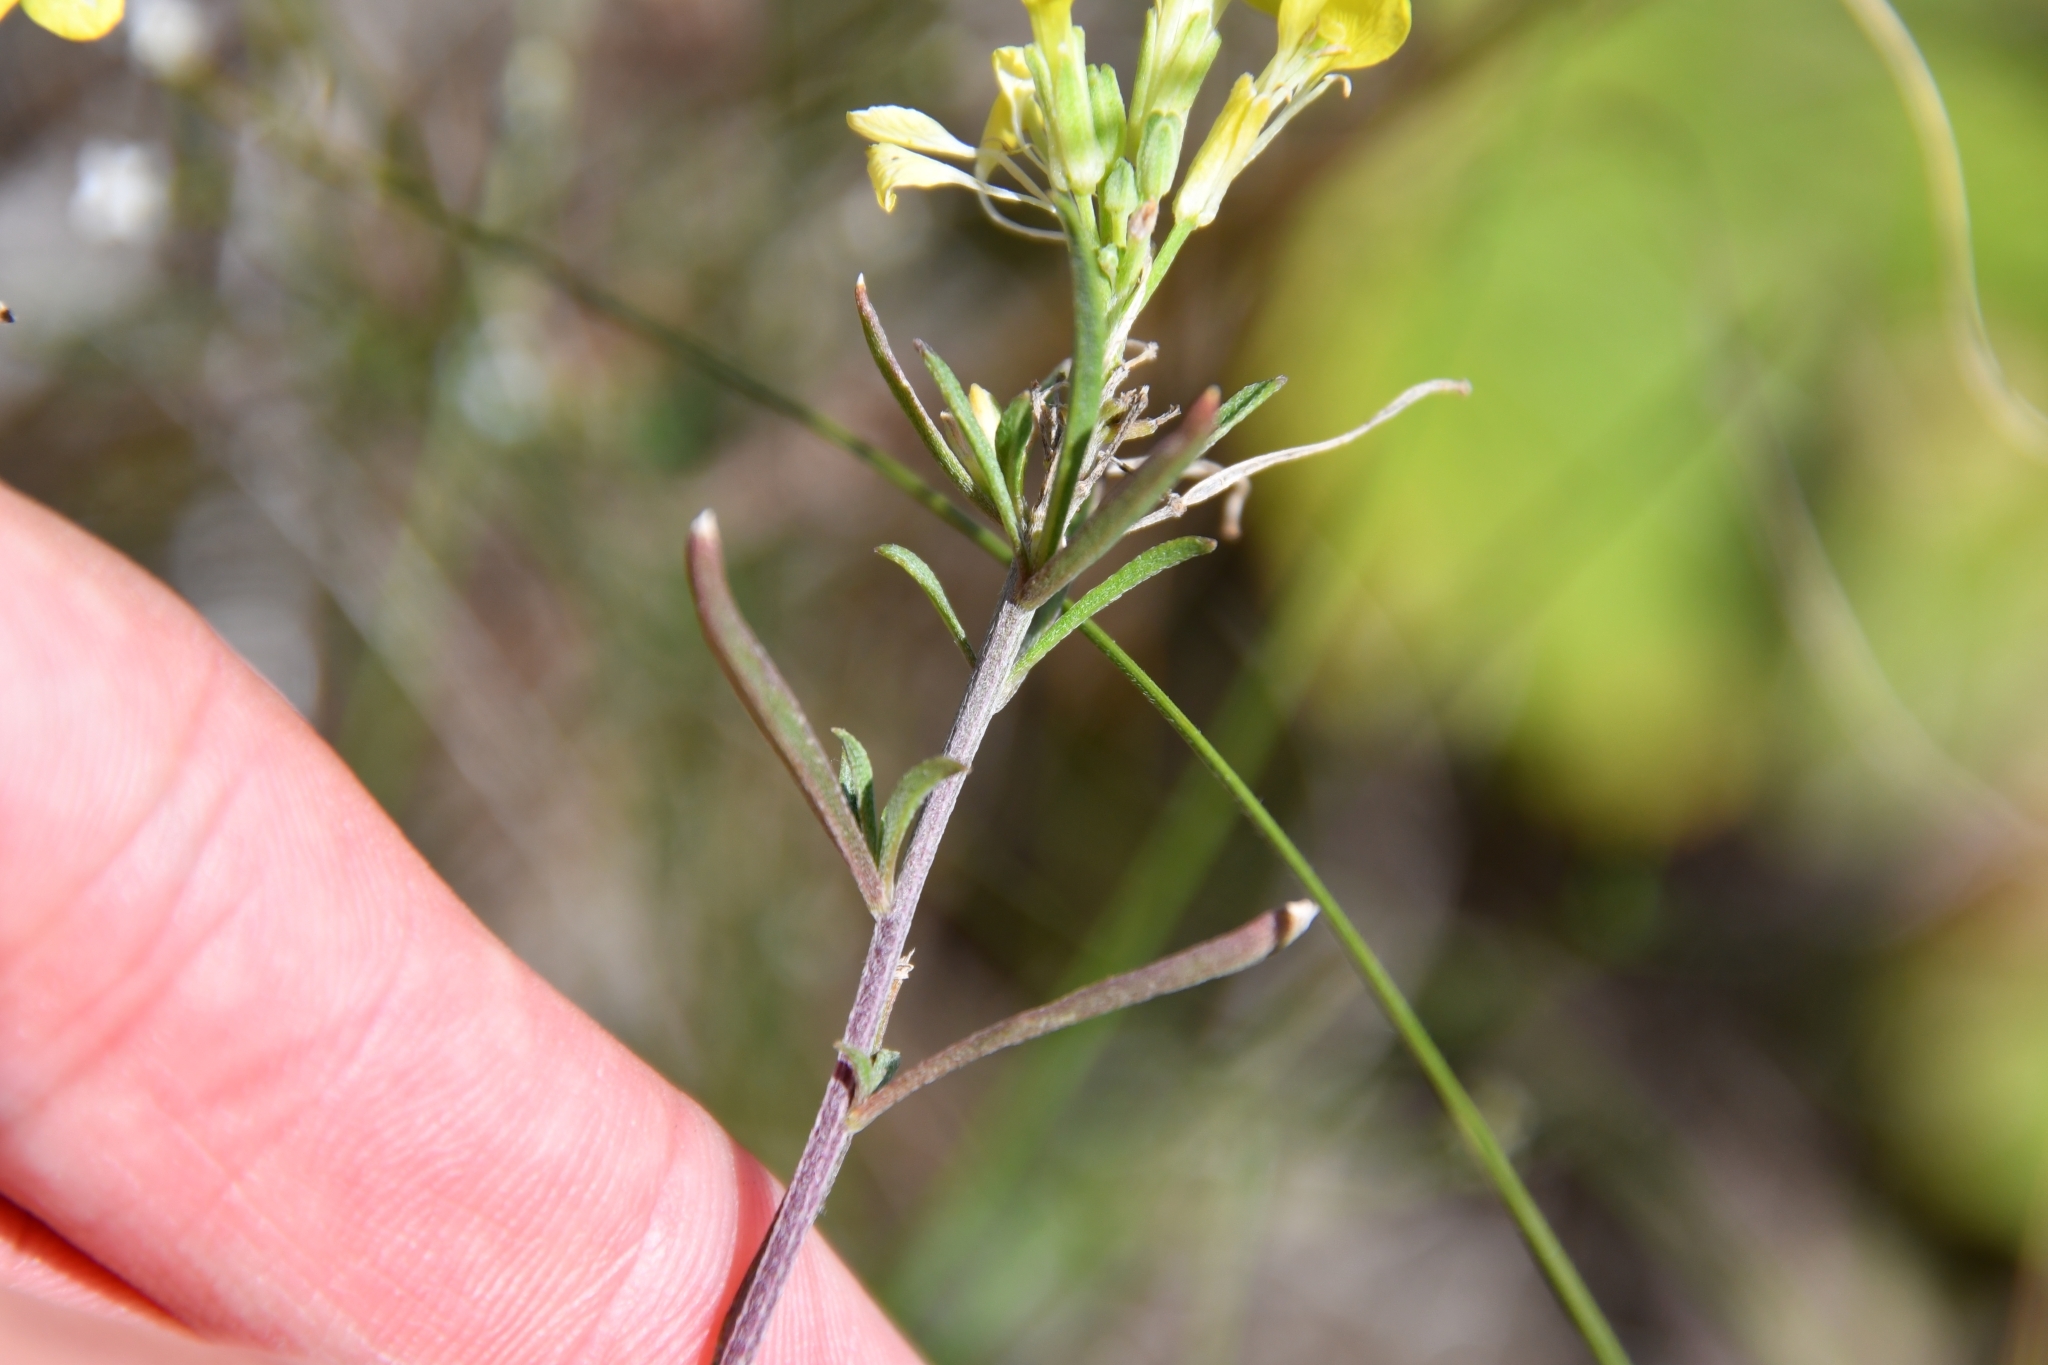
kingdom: Plantae
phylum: Tracheophyta
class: Magnoliopsida
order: Brassicales
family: Brassicaceae
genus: Erysimum
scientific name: Erysimum diffusum
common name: Diffuse wallflower
